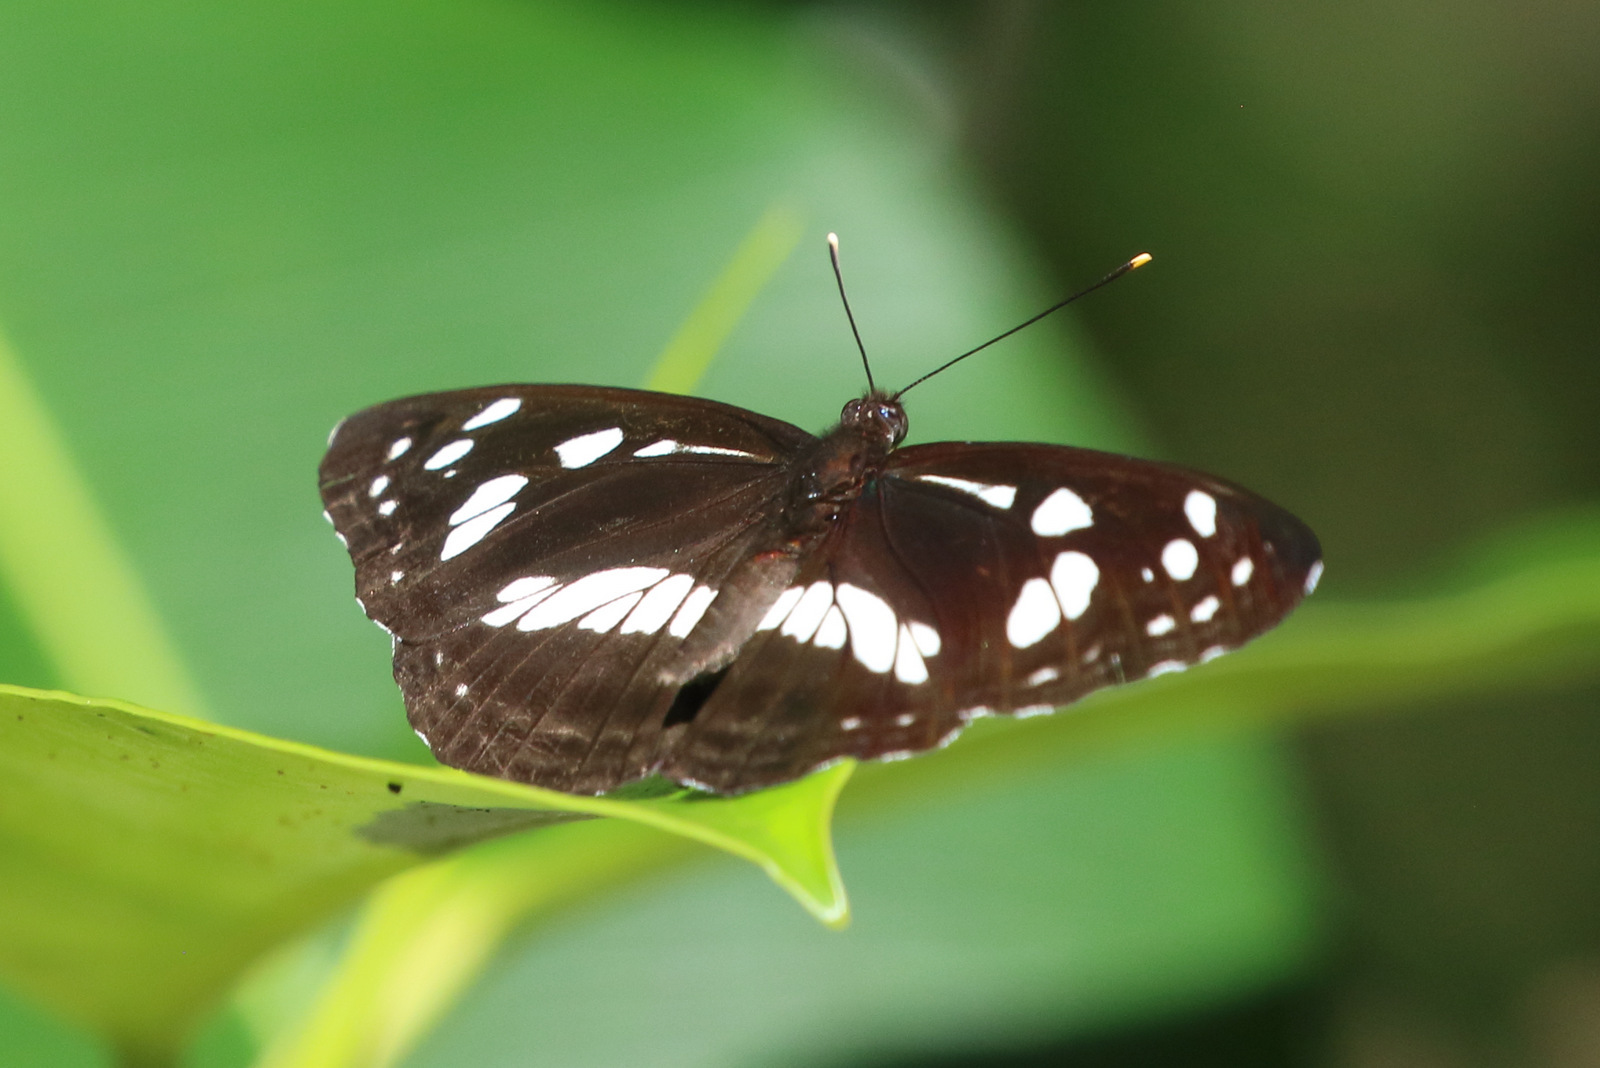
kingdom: Animalia
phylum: Arthropoda
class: Insecta
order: Lepidoptera
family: Nymphalidae
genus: Phaedyma
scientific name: Phaedyma shepherdi
